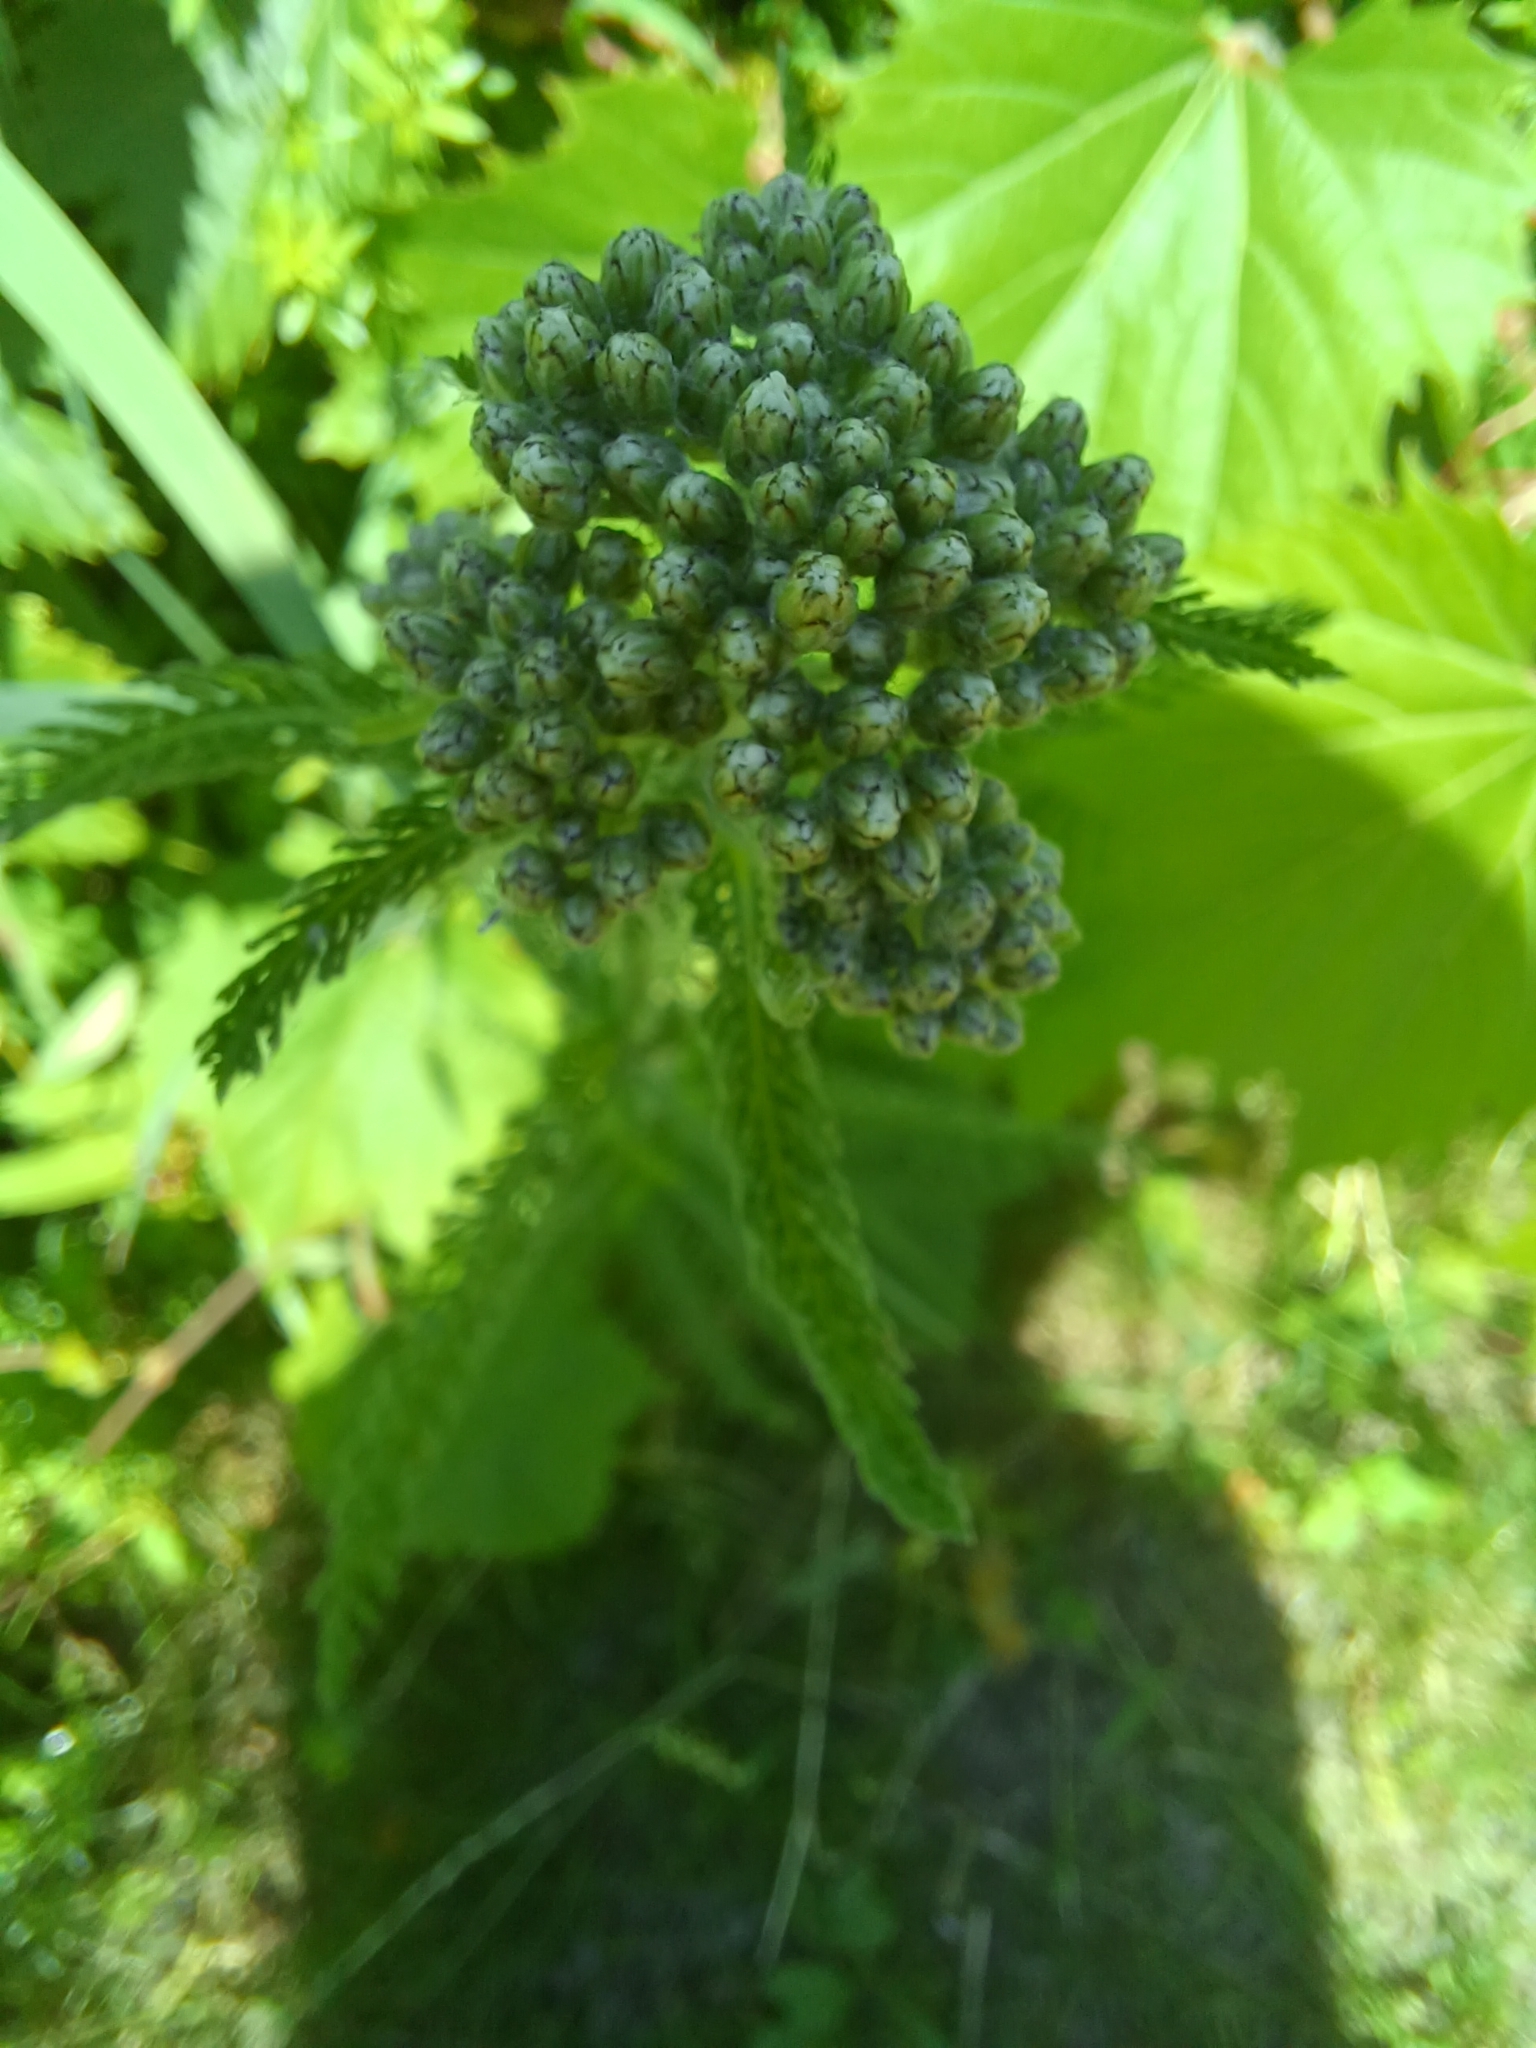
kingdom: Plantae
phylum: Tracheophyta
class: Magnoliopsida
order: Asterales
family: Asteraceae
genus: Achillea
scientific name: Achillea millefolium
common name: Yarrow
